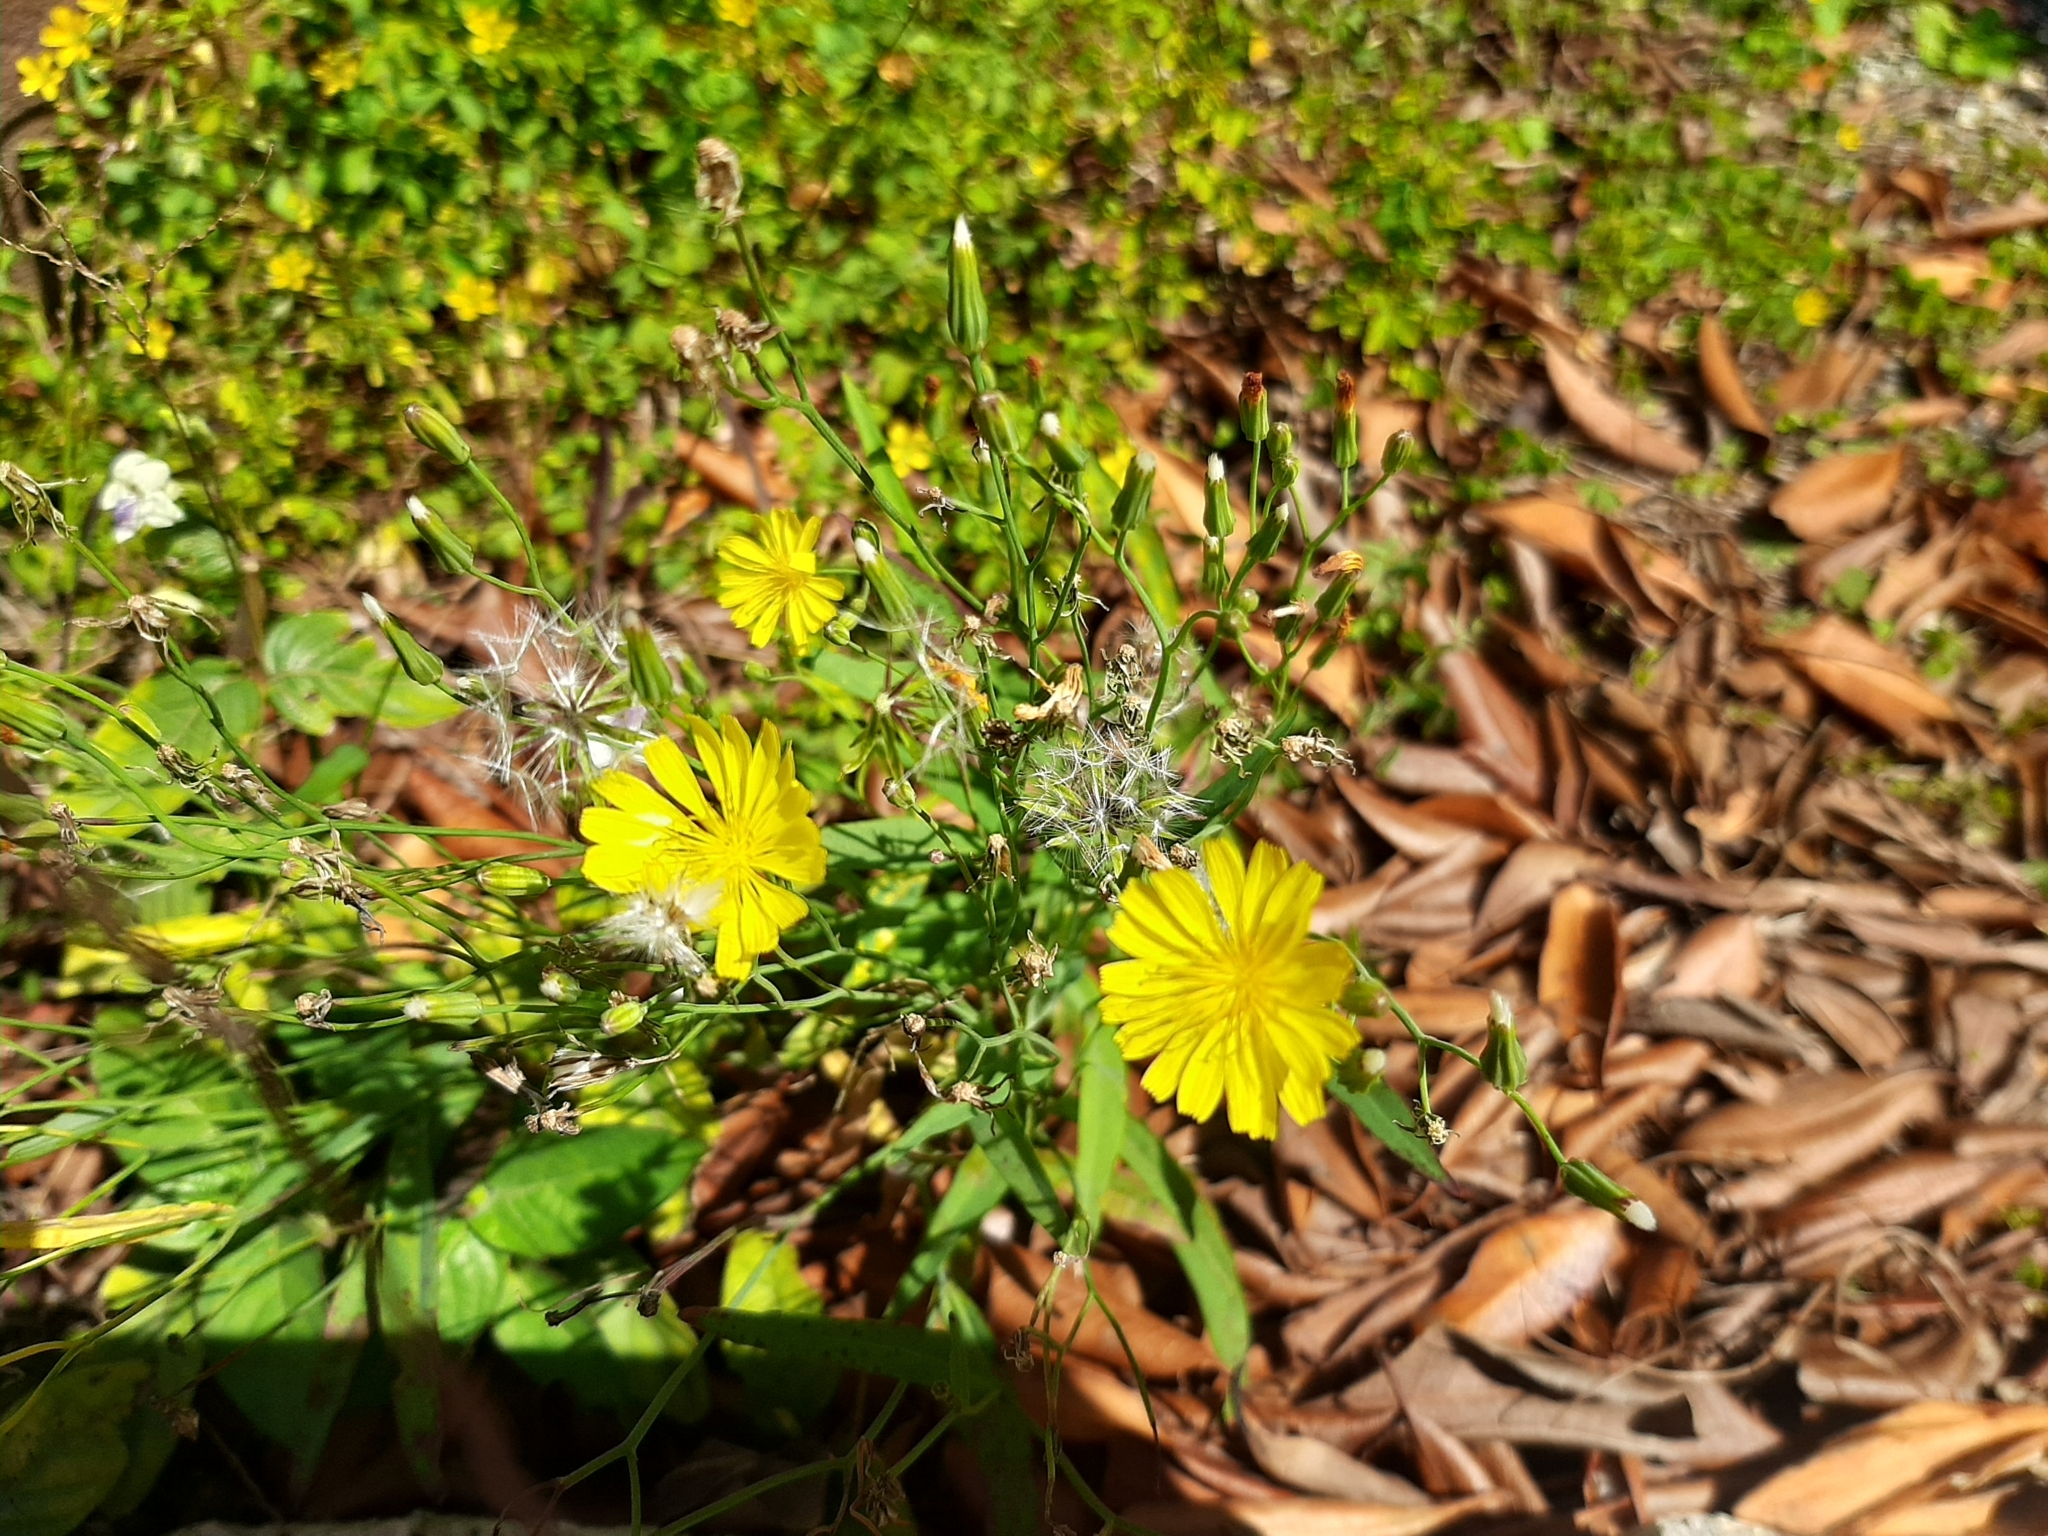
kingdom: Plantae
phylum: Tracheophyta
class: Magnoliopsida
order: Asterales
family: Asteraceae
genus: Ixeris
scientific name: Ixeris chinensis
